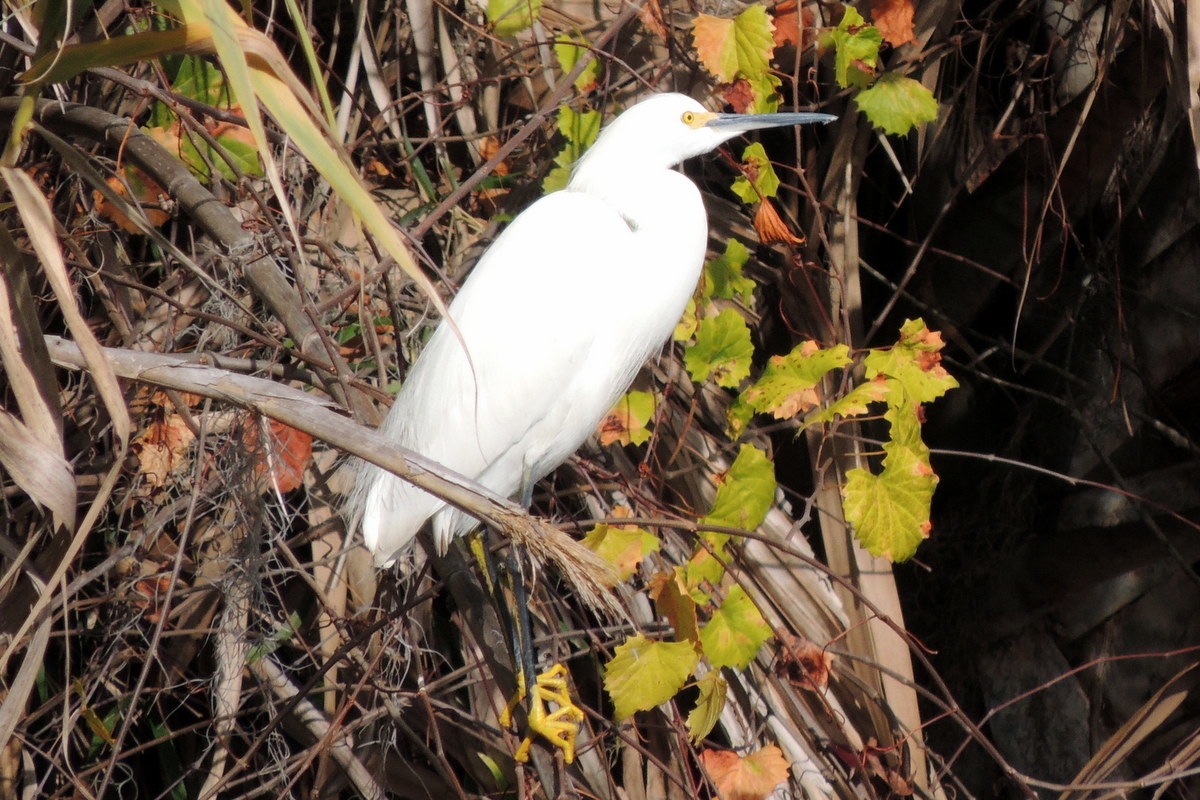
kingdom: Animalia
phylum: Chordata
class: Aves
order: Pelecaniformes
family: Ardeidae
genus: Egretta
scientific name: Egretta thula
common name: Snowy egret
